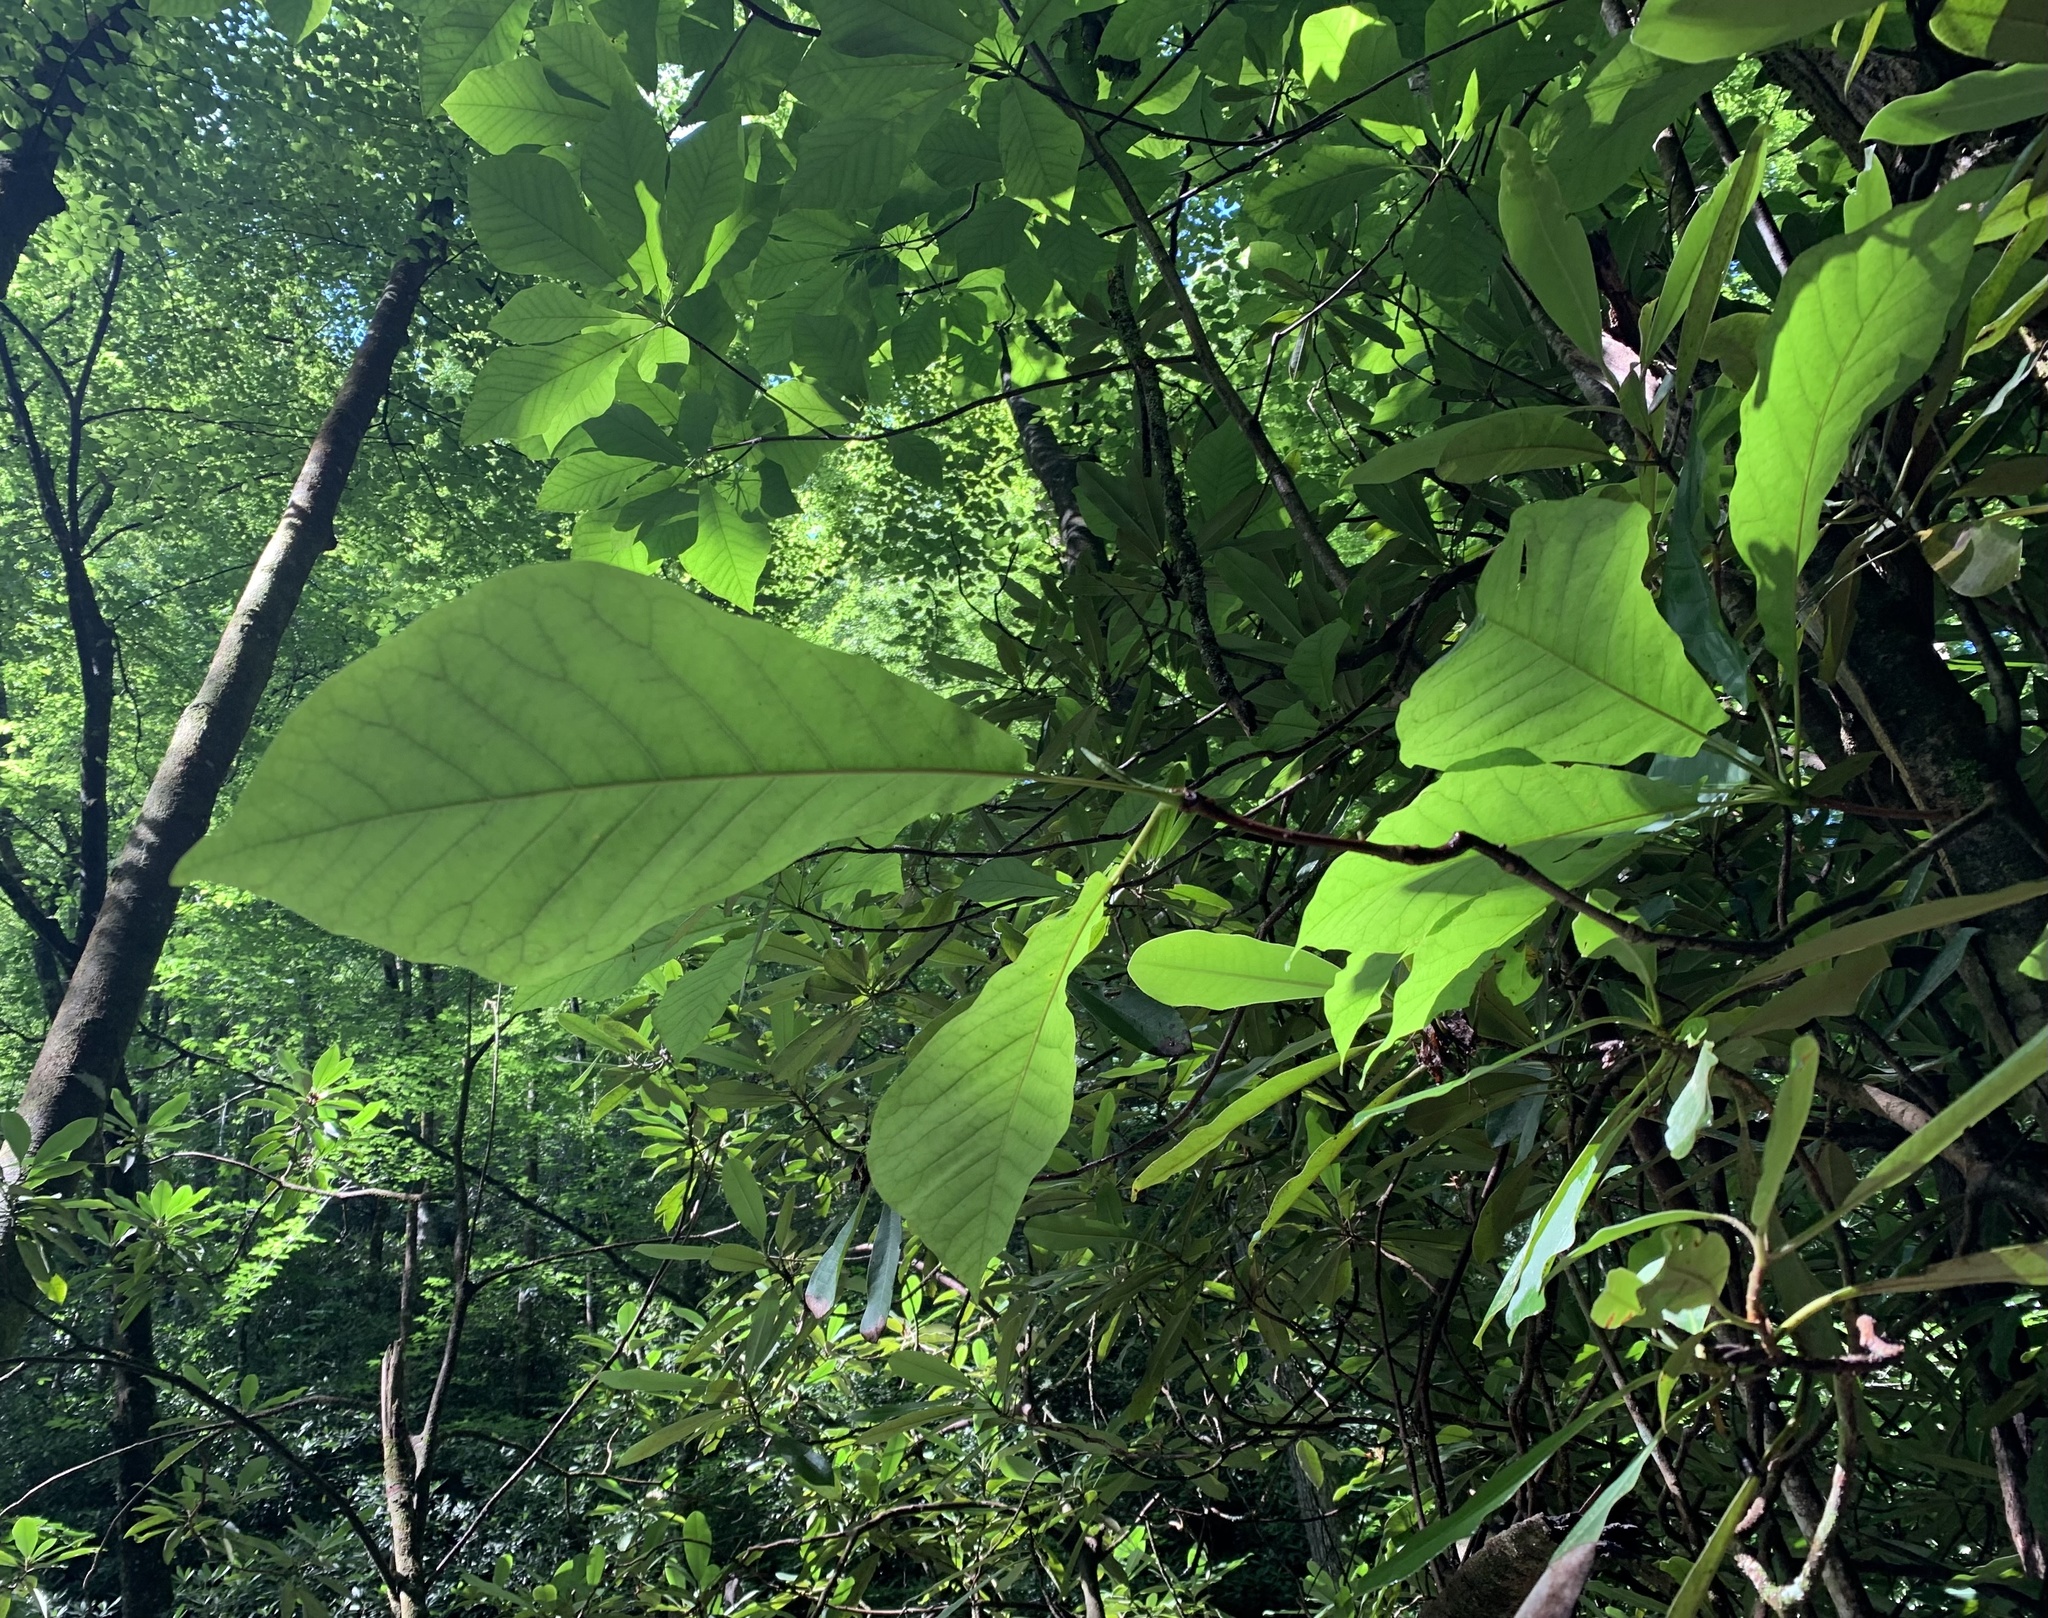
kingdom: Plantae
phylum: Tracheophyta
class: Magnoliopsida
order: Magnoliales
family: Magnoliaceae
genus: Magnolia
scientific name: Magnolia fraseri
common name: Fraser's magnolia
